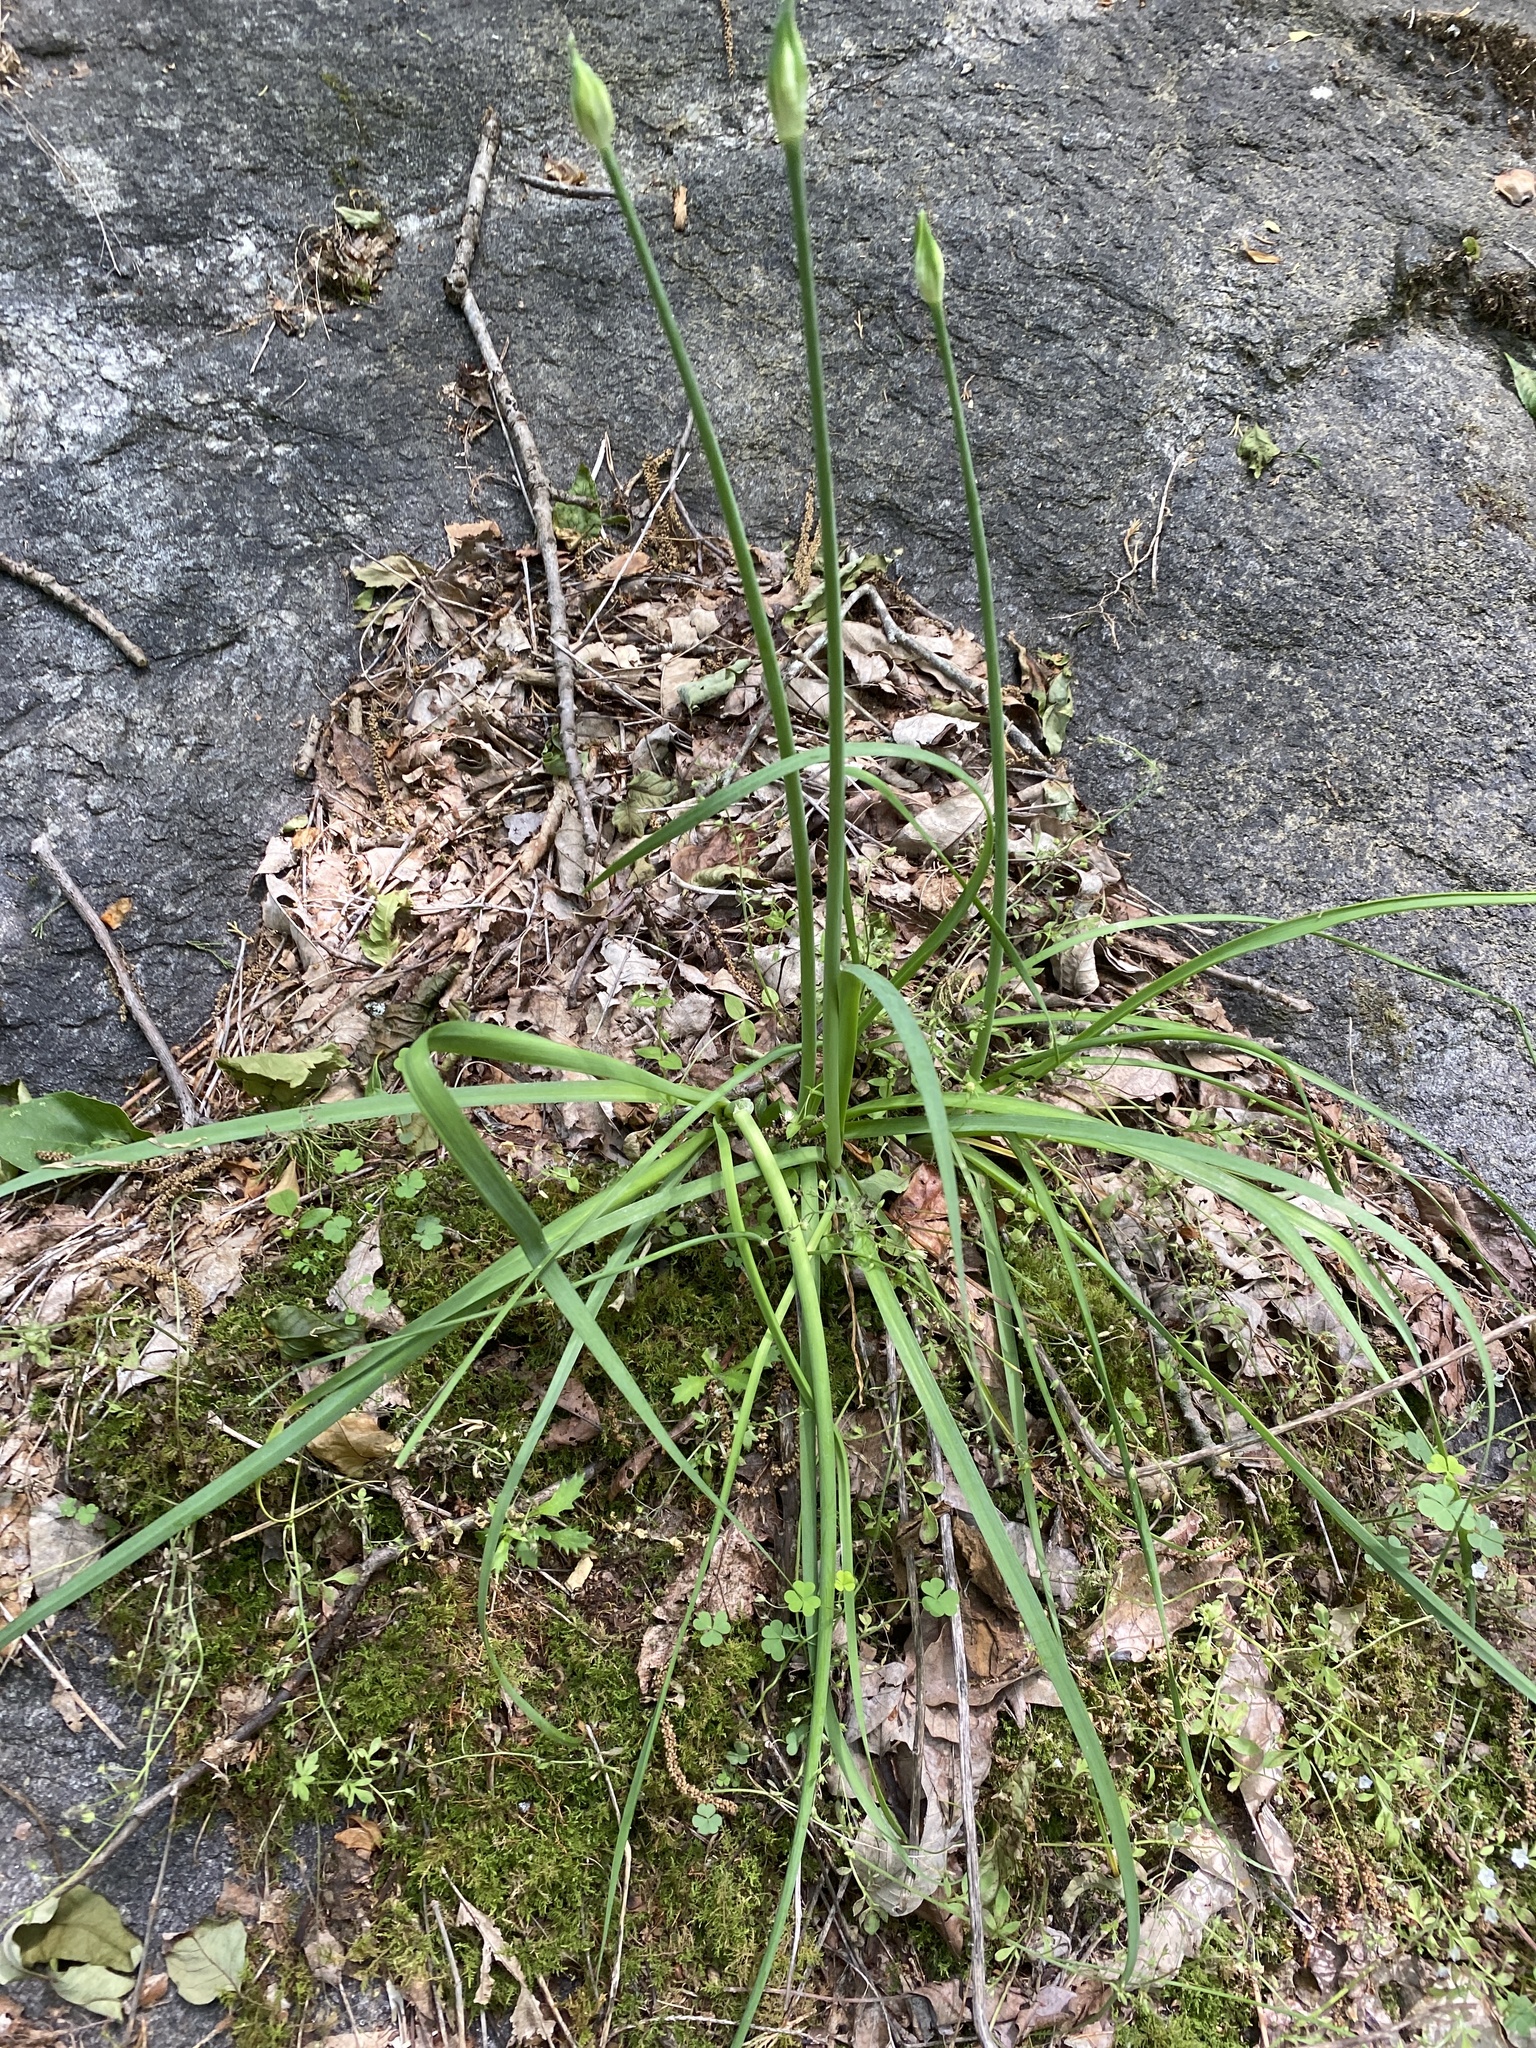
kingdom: Plantae
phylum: Tracheophyta
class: Liliopsida
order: Asparagales
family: Amaryllidaceae
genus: Allium
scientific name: Allium keeverae
